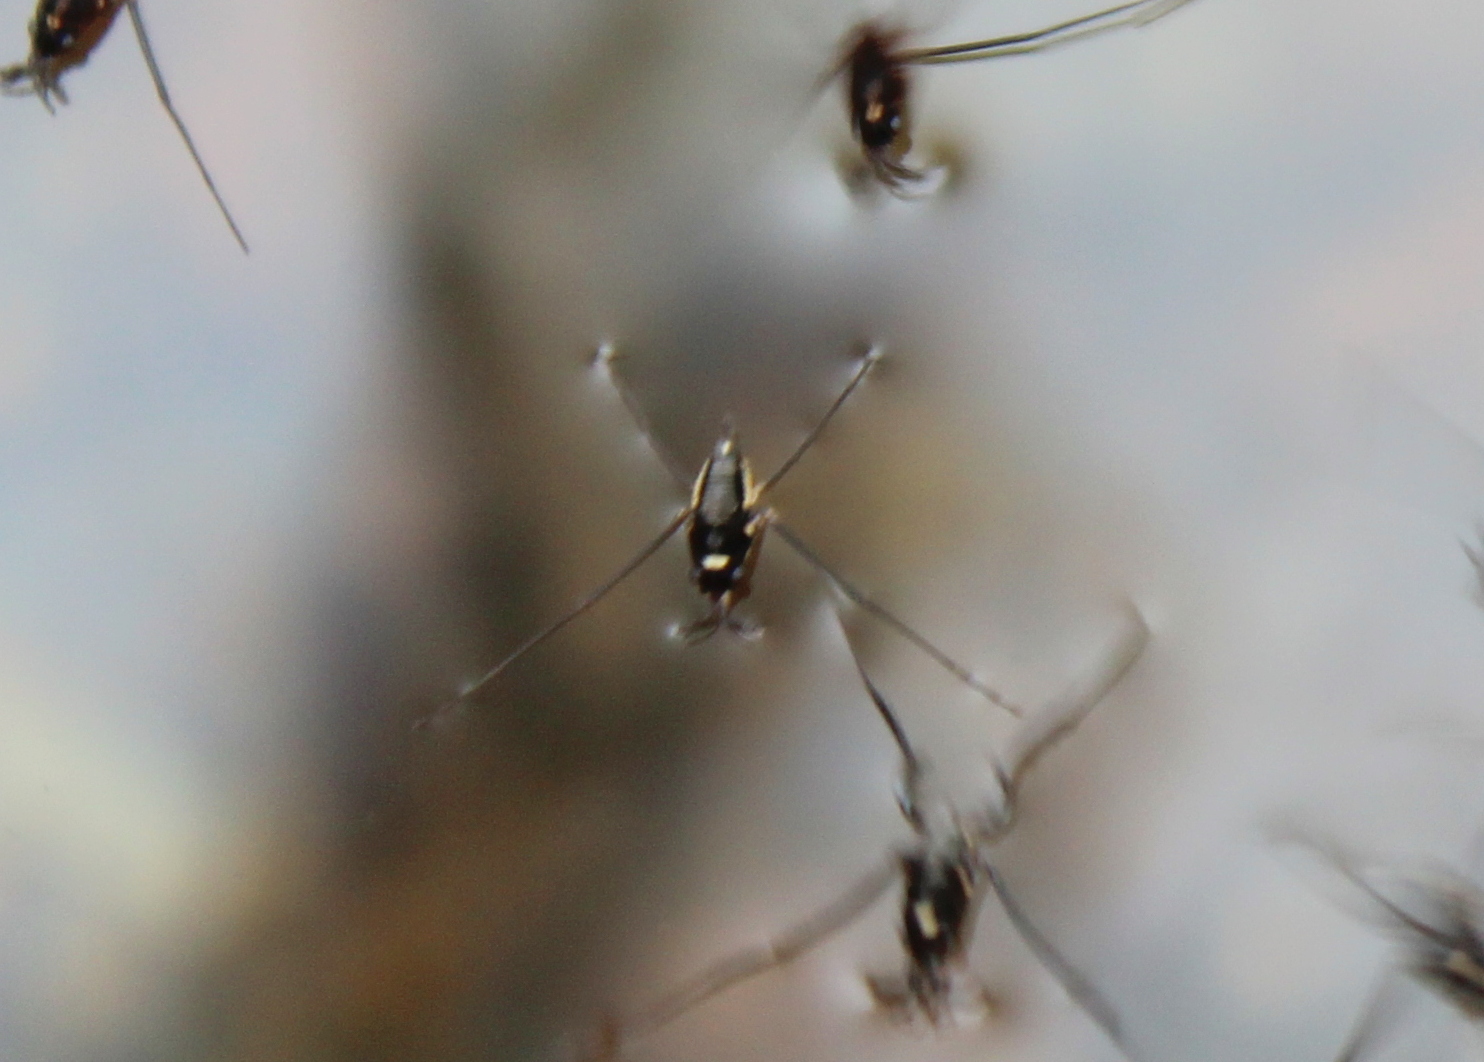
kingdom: Animalia
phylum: Arthropoda
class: Insecta
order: Hemiptera
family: Gerridae
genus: Rheumatobates
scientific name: Rheumatobates rileyi
